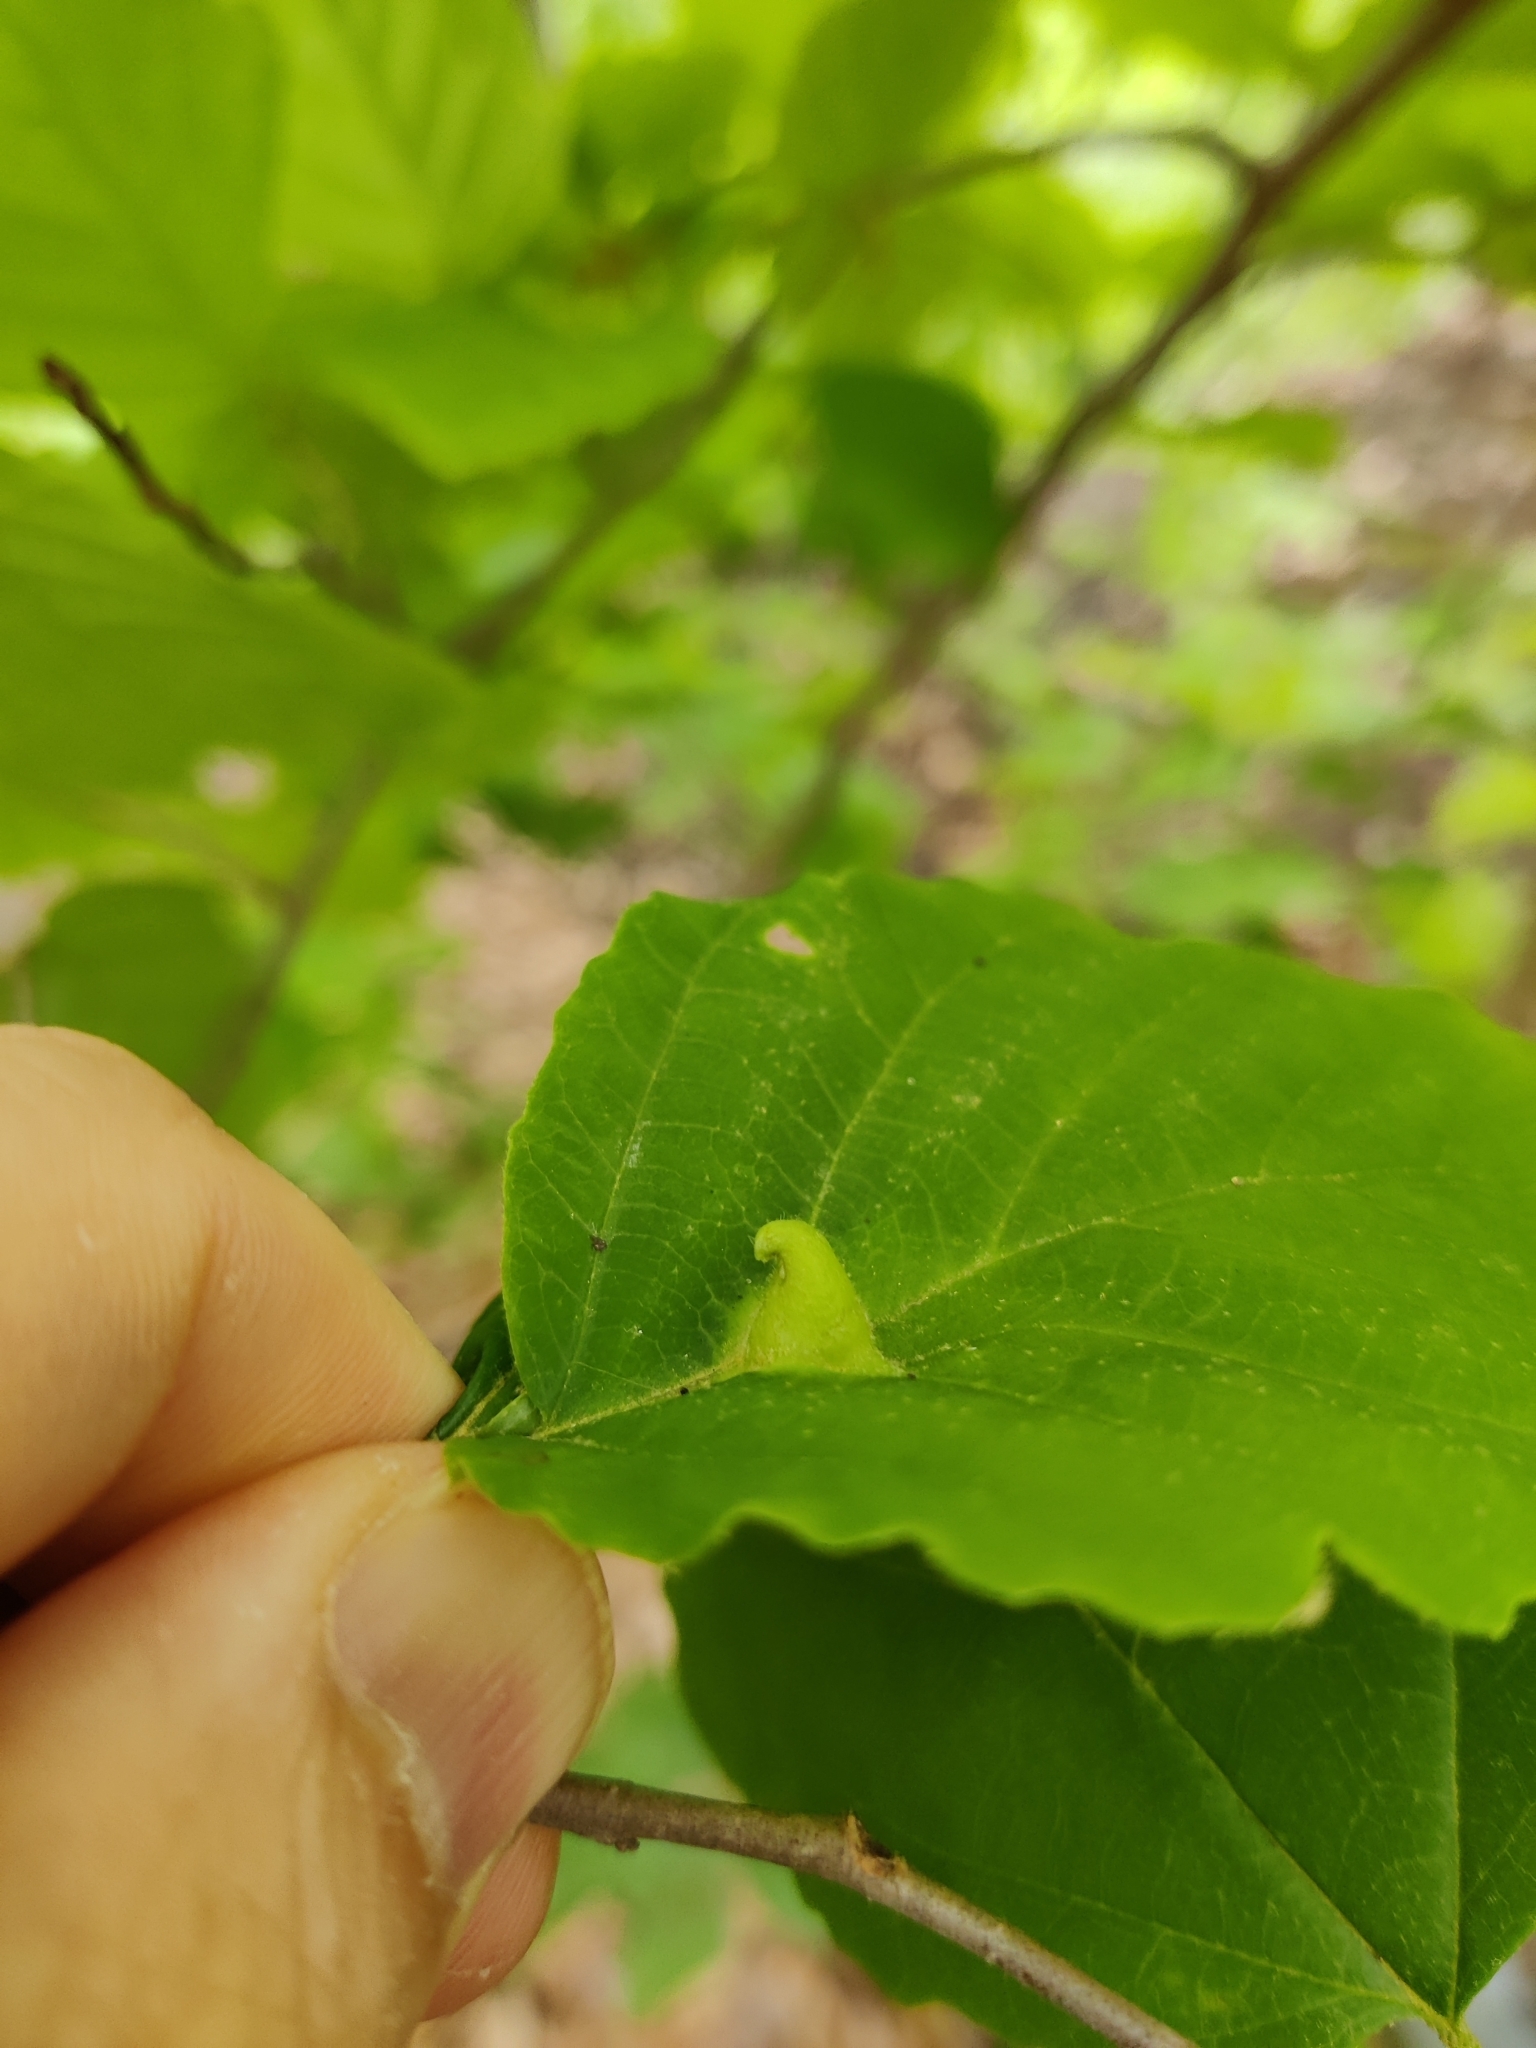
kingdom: Animalia
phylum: Arthropoda
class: Insecta
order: Hemiptera
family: Aphididae
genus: Hormaphis
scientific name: Hormaphis hamamelidis
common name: Witch-hazel cone gall aphid
